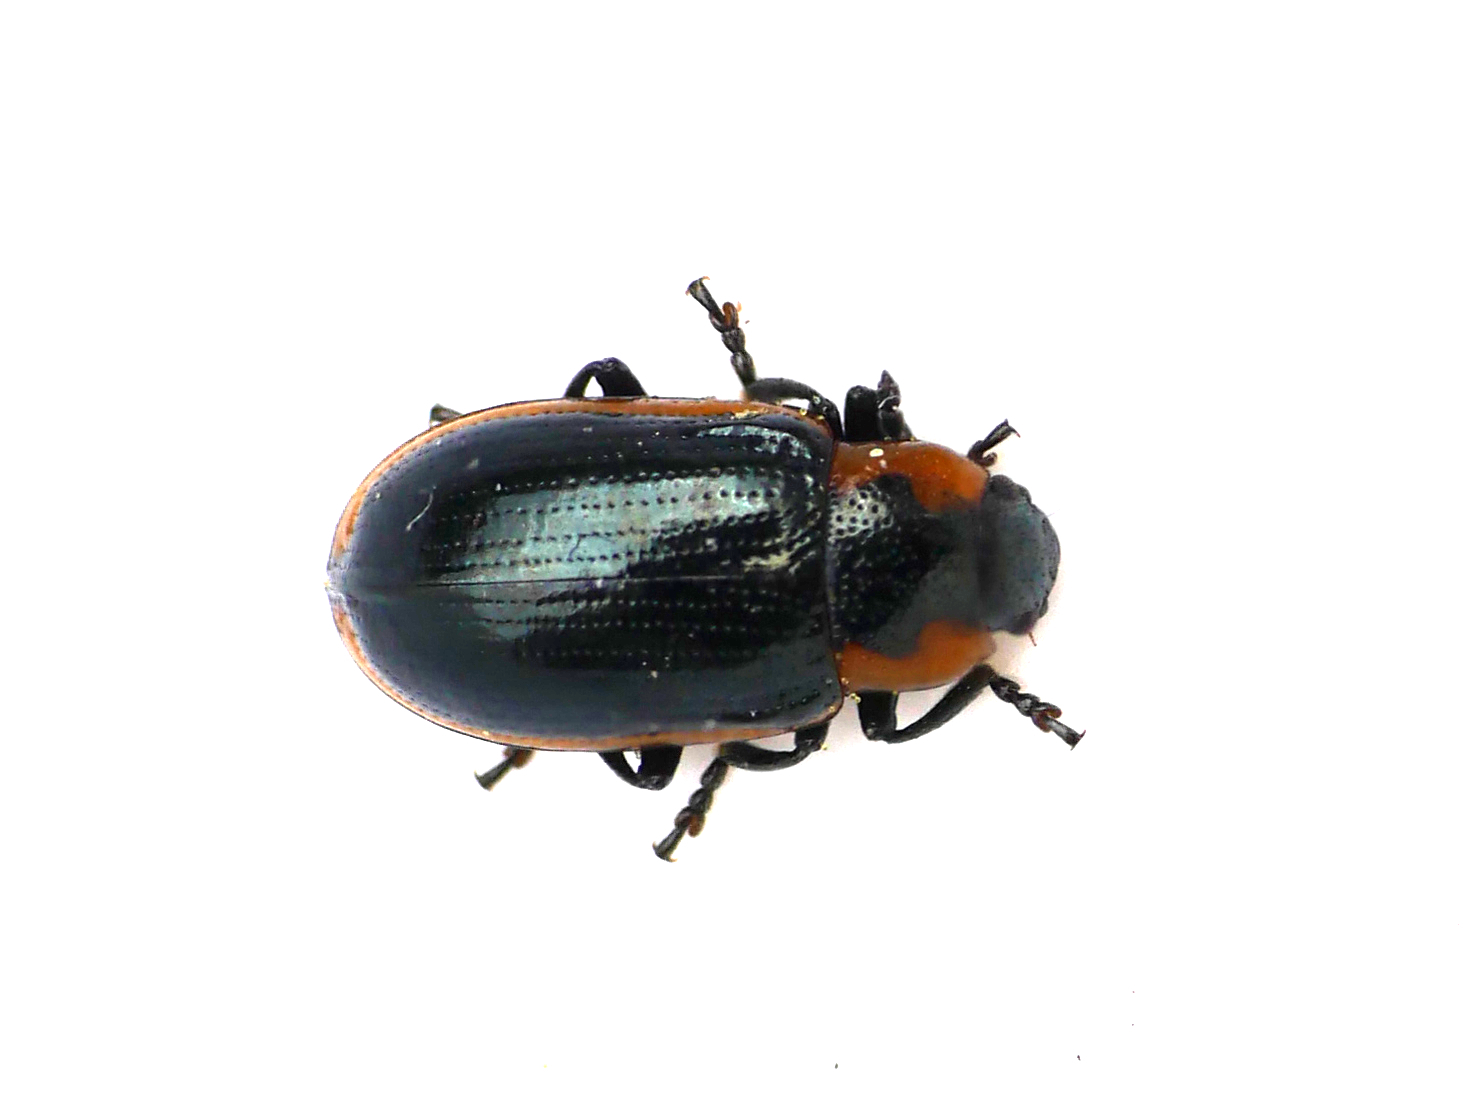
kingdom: Animalia
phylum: Arthropoda
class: Insecta
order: Coleoptera
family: Chrysomelidae
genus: Prasocuris
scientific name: Prasocuris marginella
